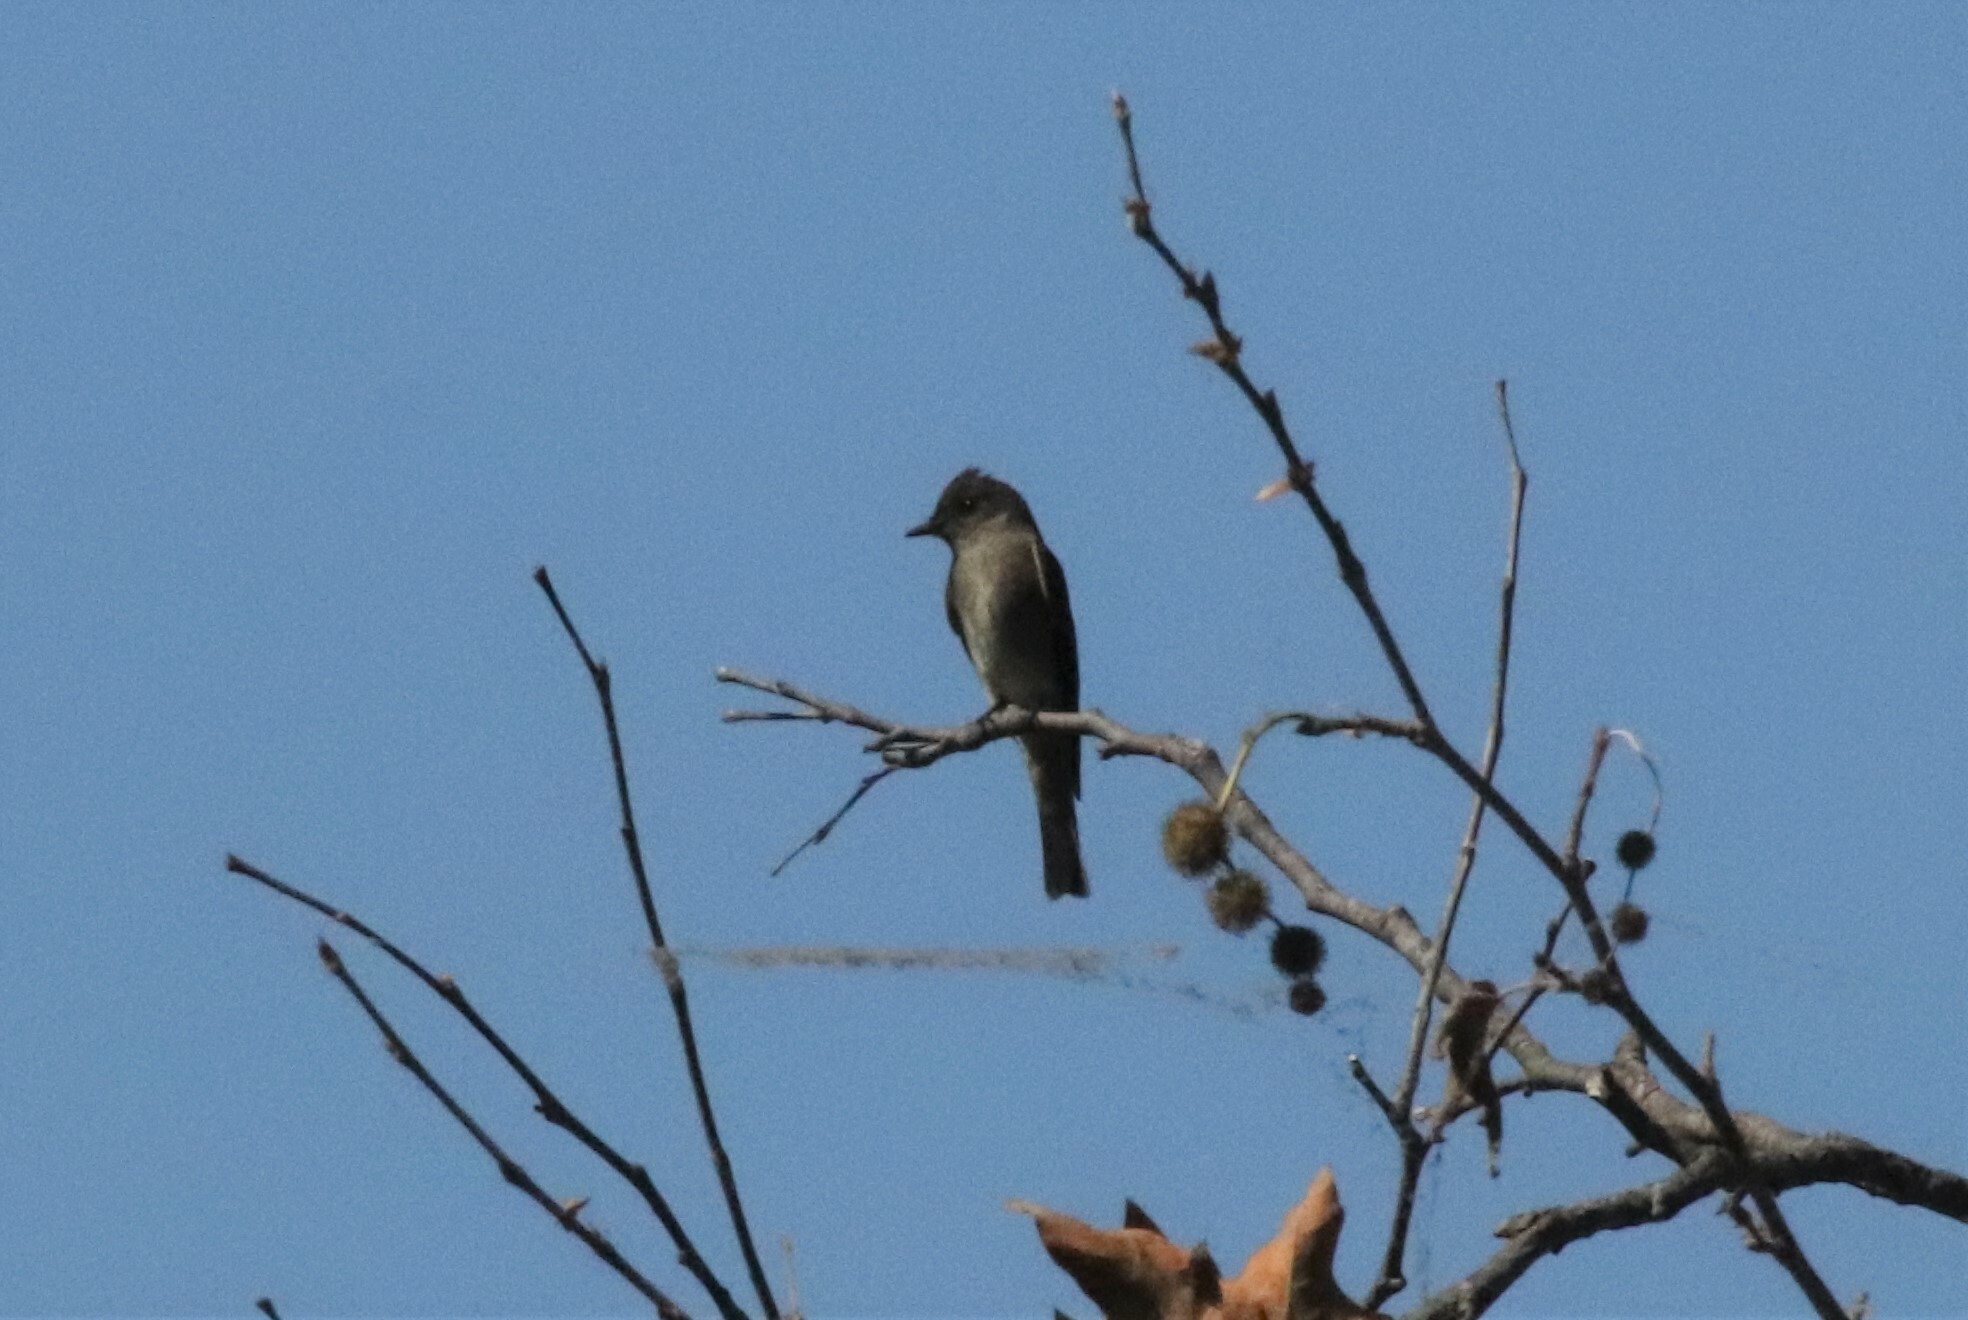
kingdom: Animalia
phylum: Chordata
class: Aves
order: Passeriformes
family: Tyrannidae
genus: Contopus
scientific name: Contopus sordidulus
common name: Western wood-pewee
